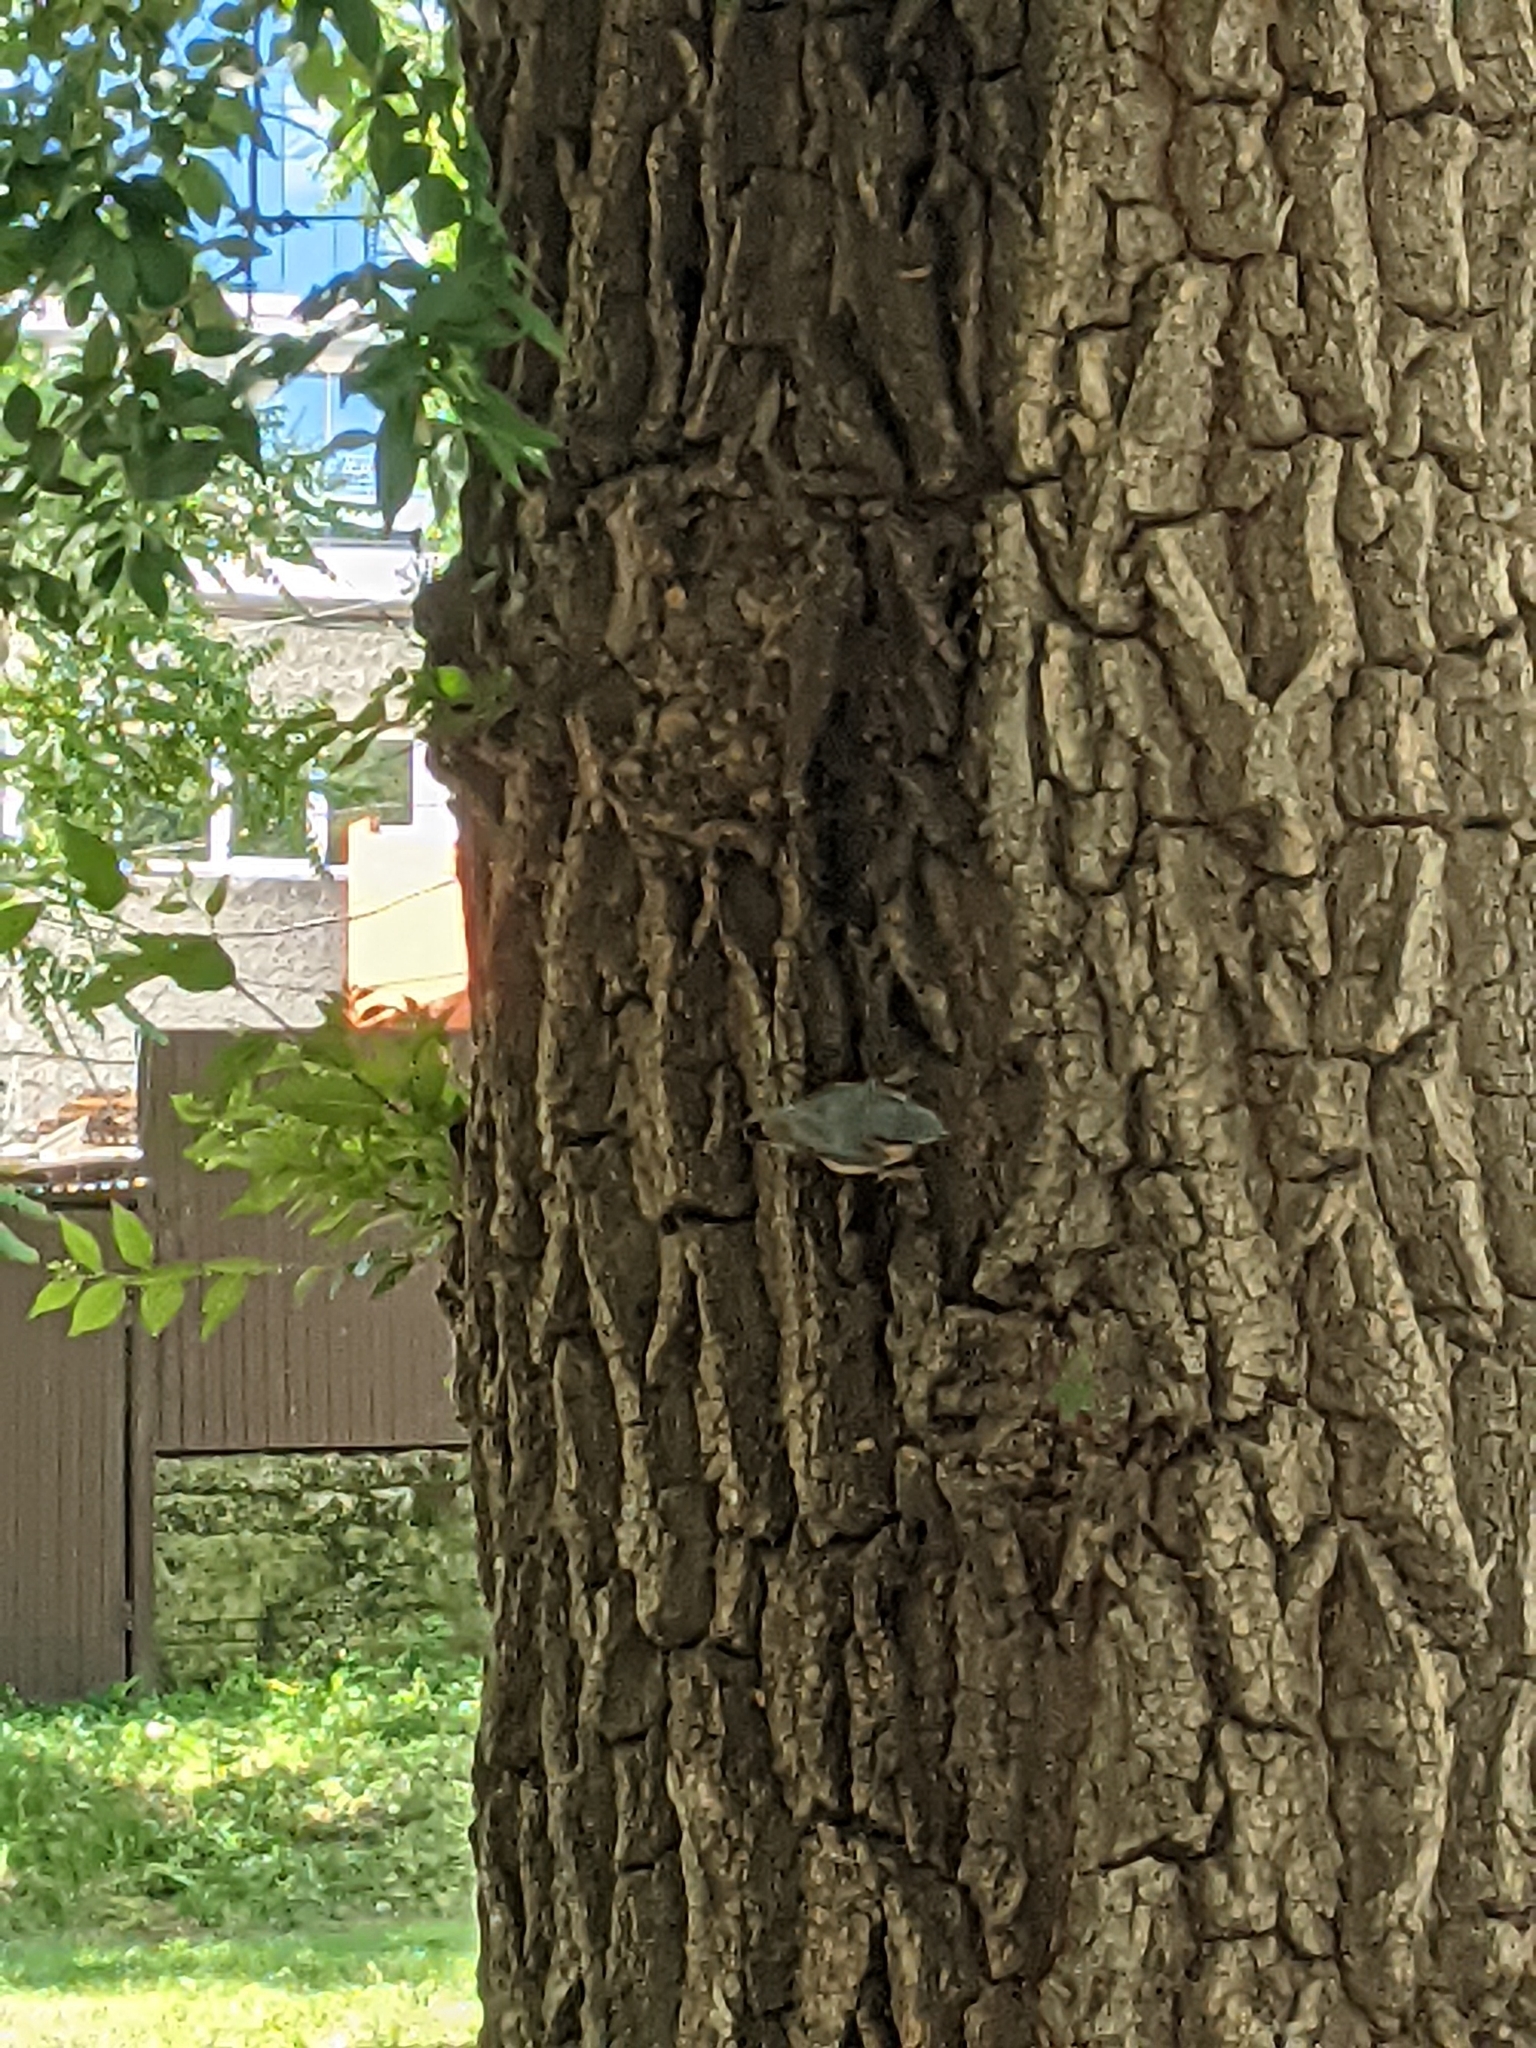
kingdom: Animalia
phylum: Chordata
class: Aves
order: Passeriformes
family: Sittidae
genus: Sitta
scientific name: Sitta europaea
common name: Eurasian nuthatch
